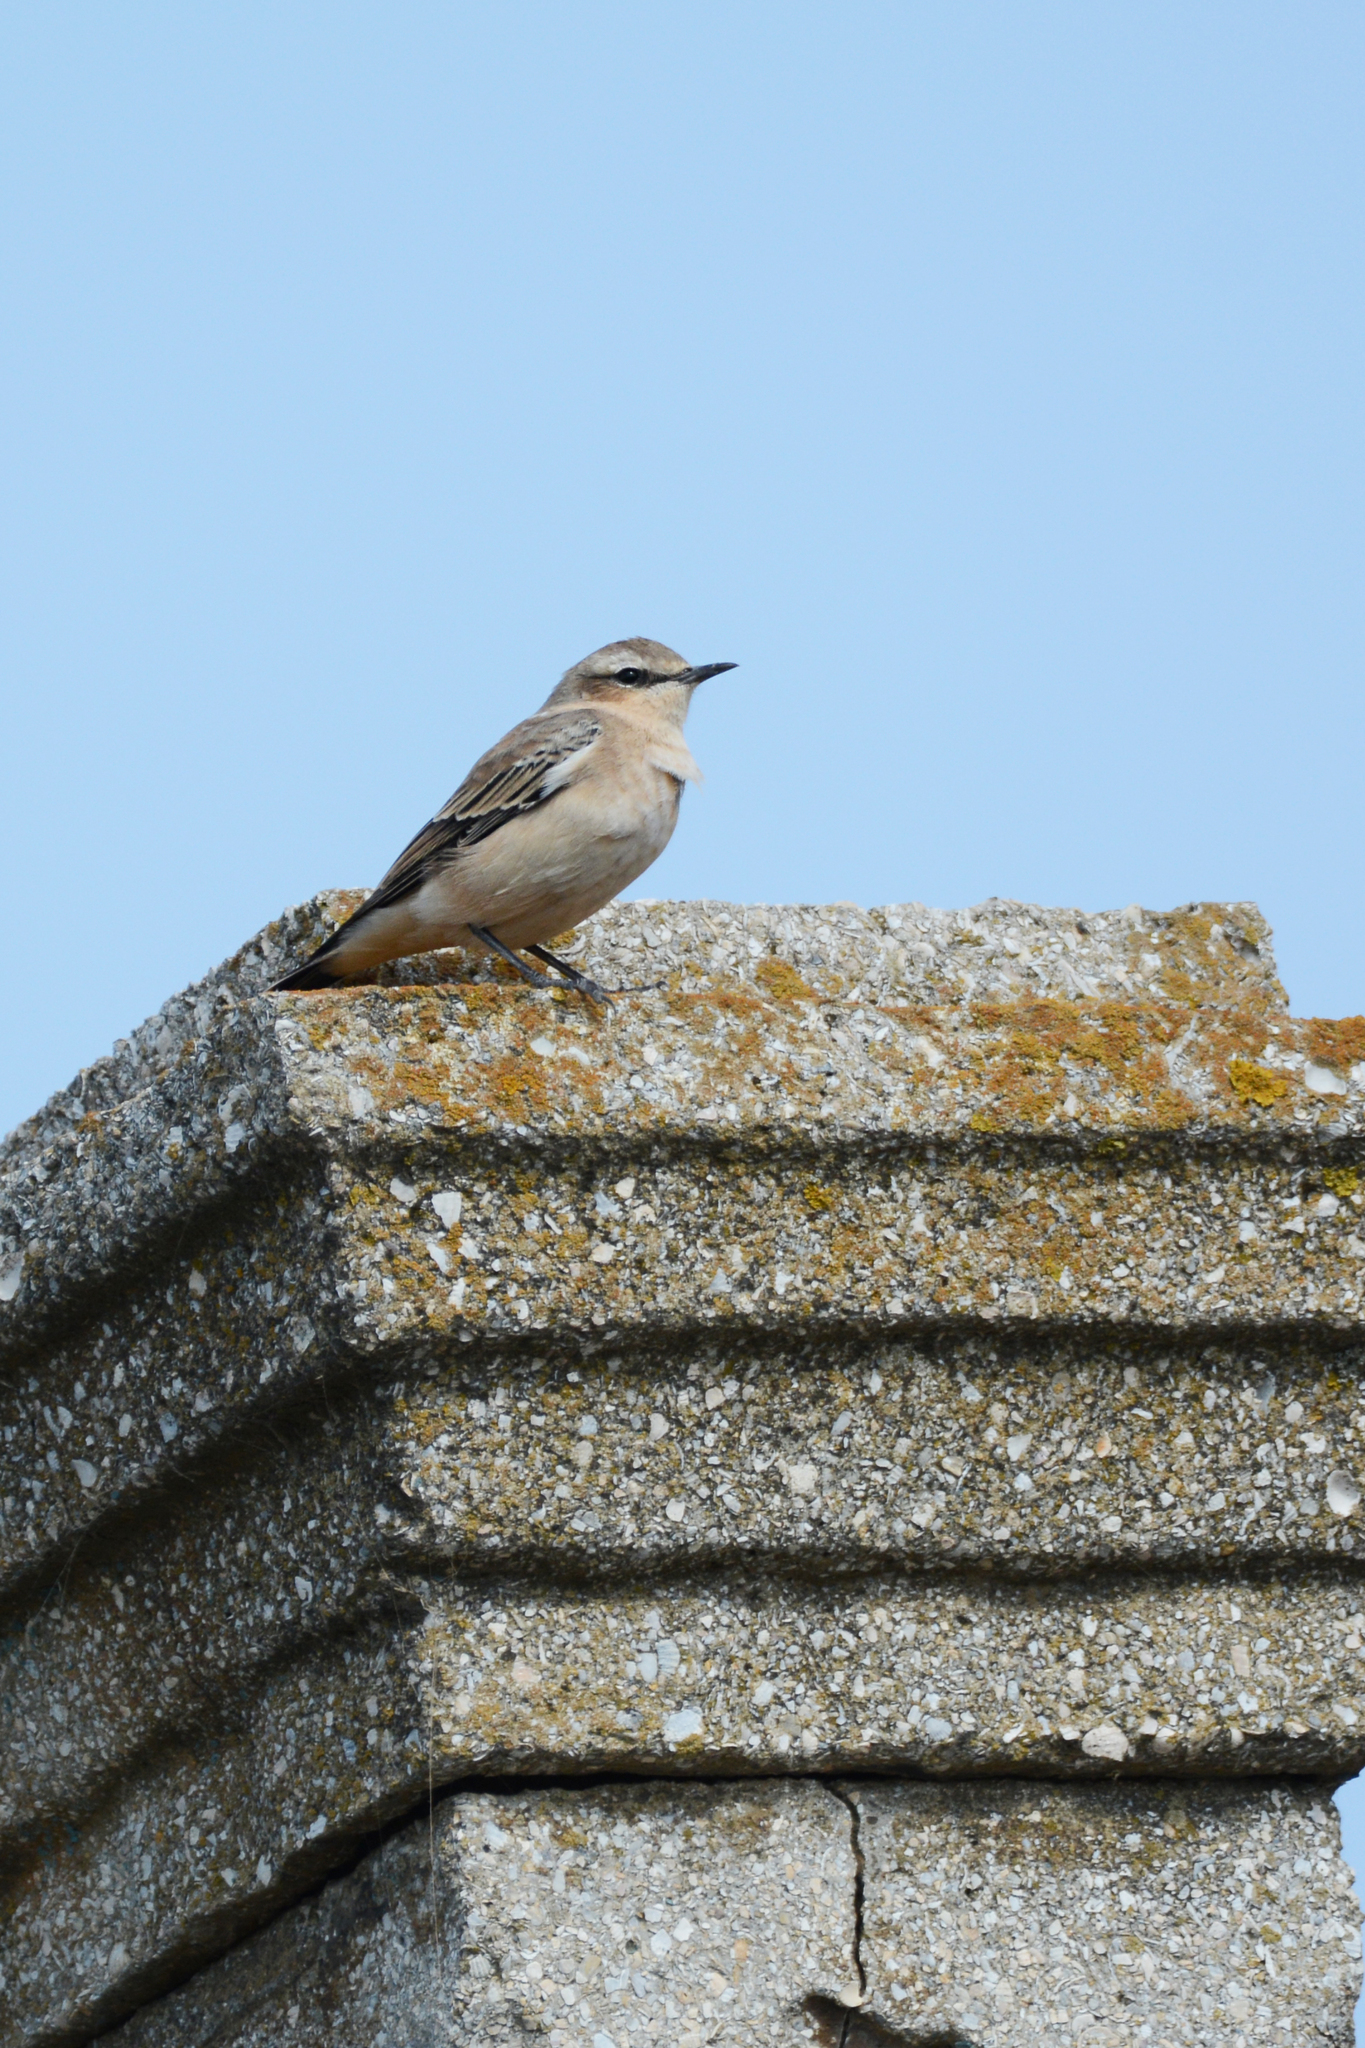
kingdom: Animalia
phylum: Chordata
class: Aves
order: Passeriformes
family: Muscicapidae
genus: Oenanthe
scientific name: Oenanthe oenanthe
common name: Northern wheatear
